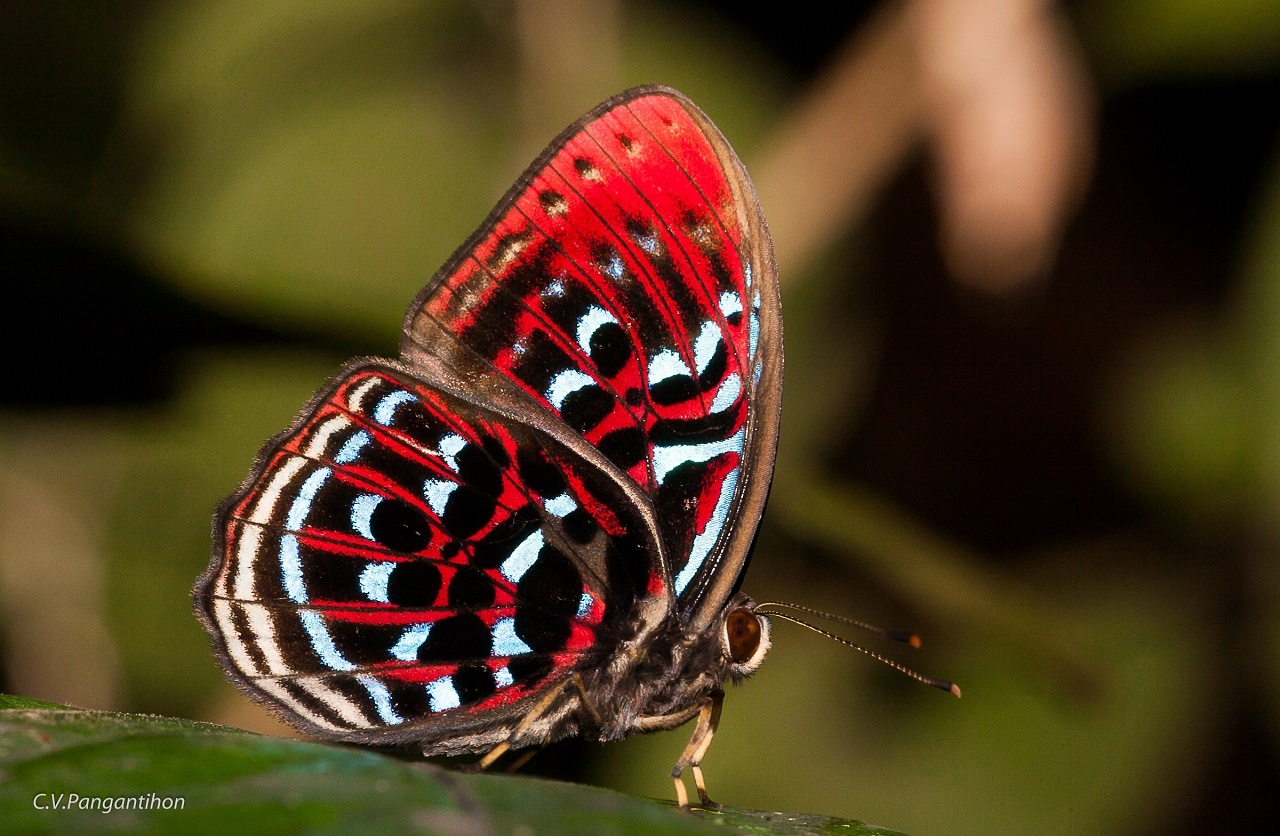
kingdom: Animalia
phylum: Arthropoda
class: Insecta
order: Lepidoptera
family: Riodinidae
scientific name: Riodinidae
